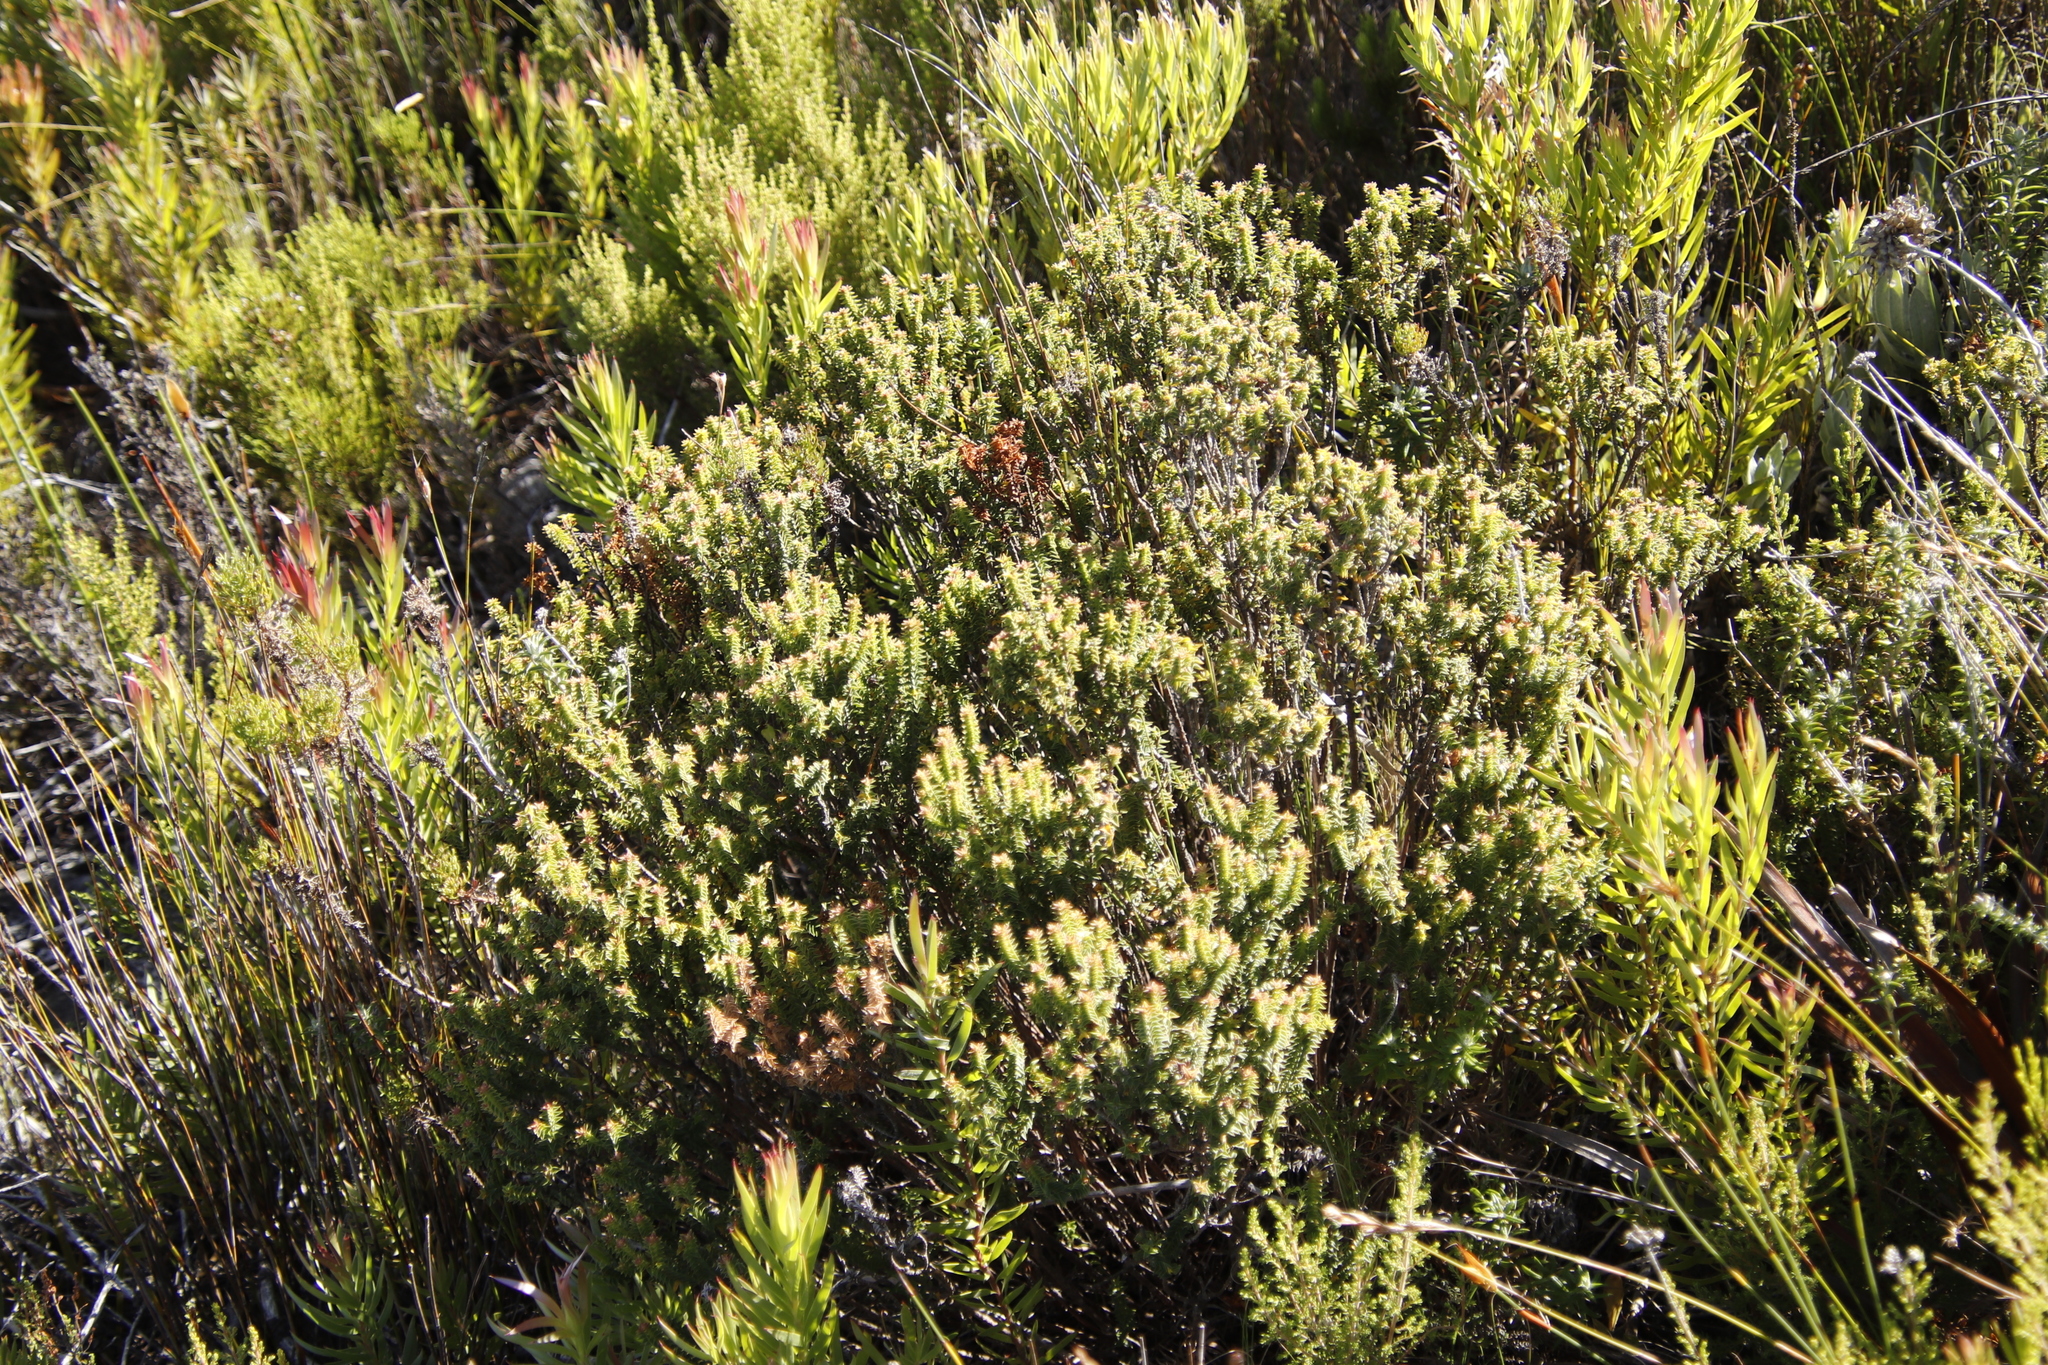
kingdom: Plantae
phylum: Tracheophyta
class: Magnoliopsida
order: Myrtales
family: Penaeaceae
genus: Penaea
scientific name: Penaea mucronata
